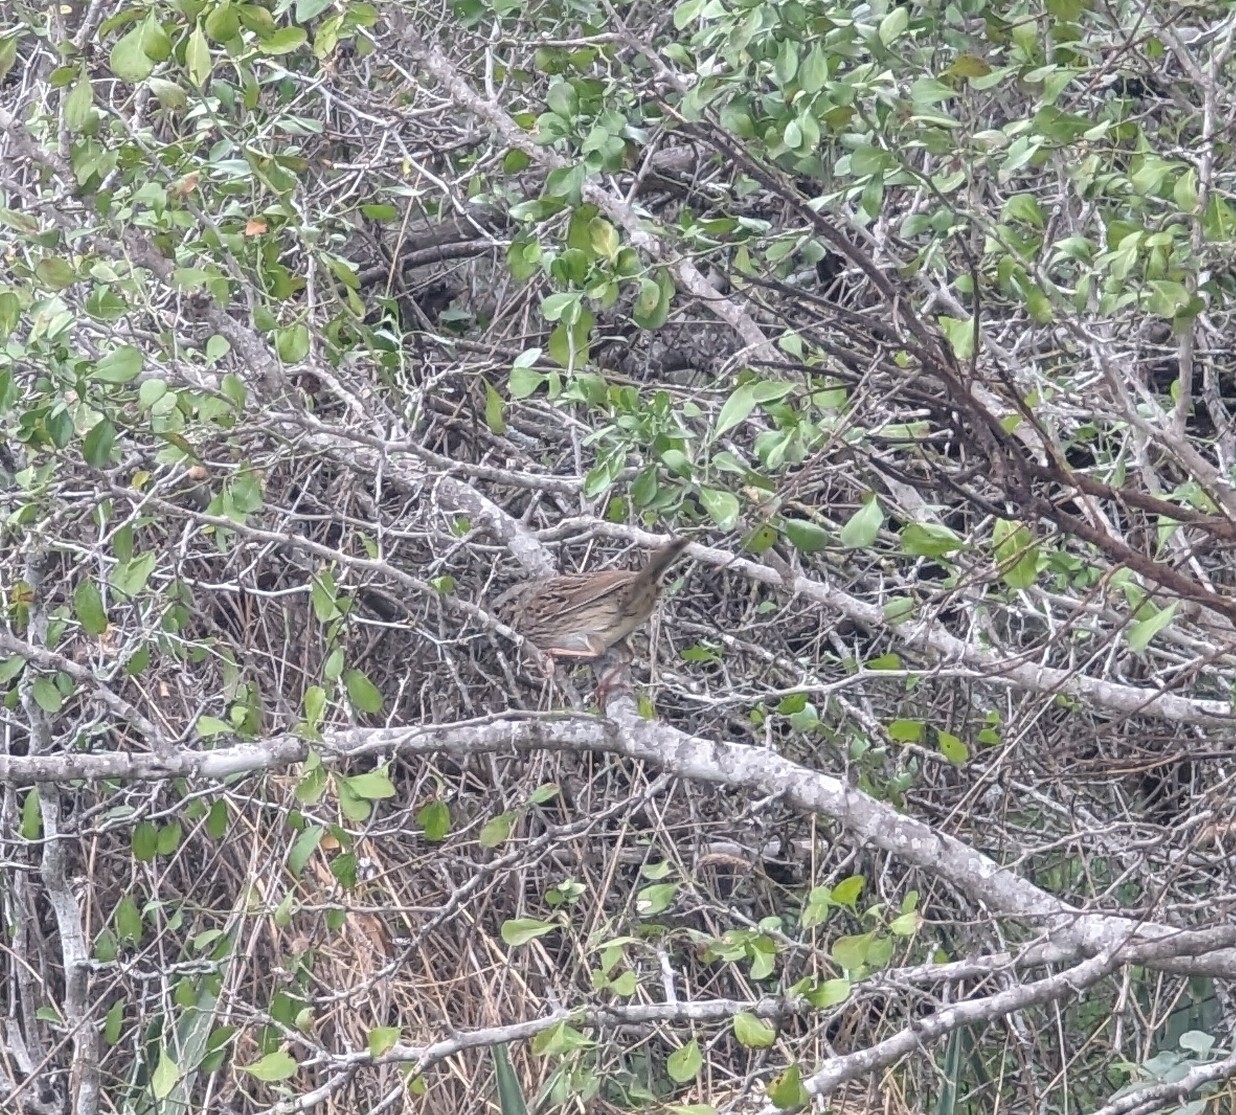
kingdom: Animalia
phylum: Chordata
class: Aves
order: Passeriformes
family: Passerellidae
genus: Melospiza
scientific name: Melospiza lincolnii
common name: Lincoln's sparrow
